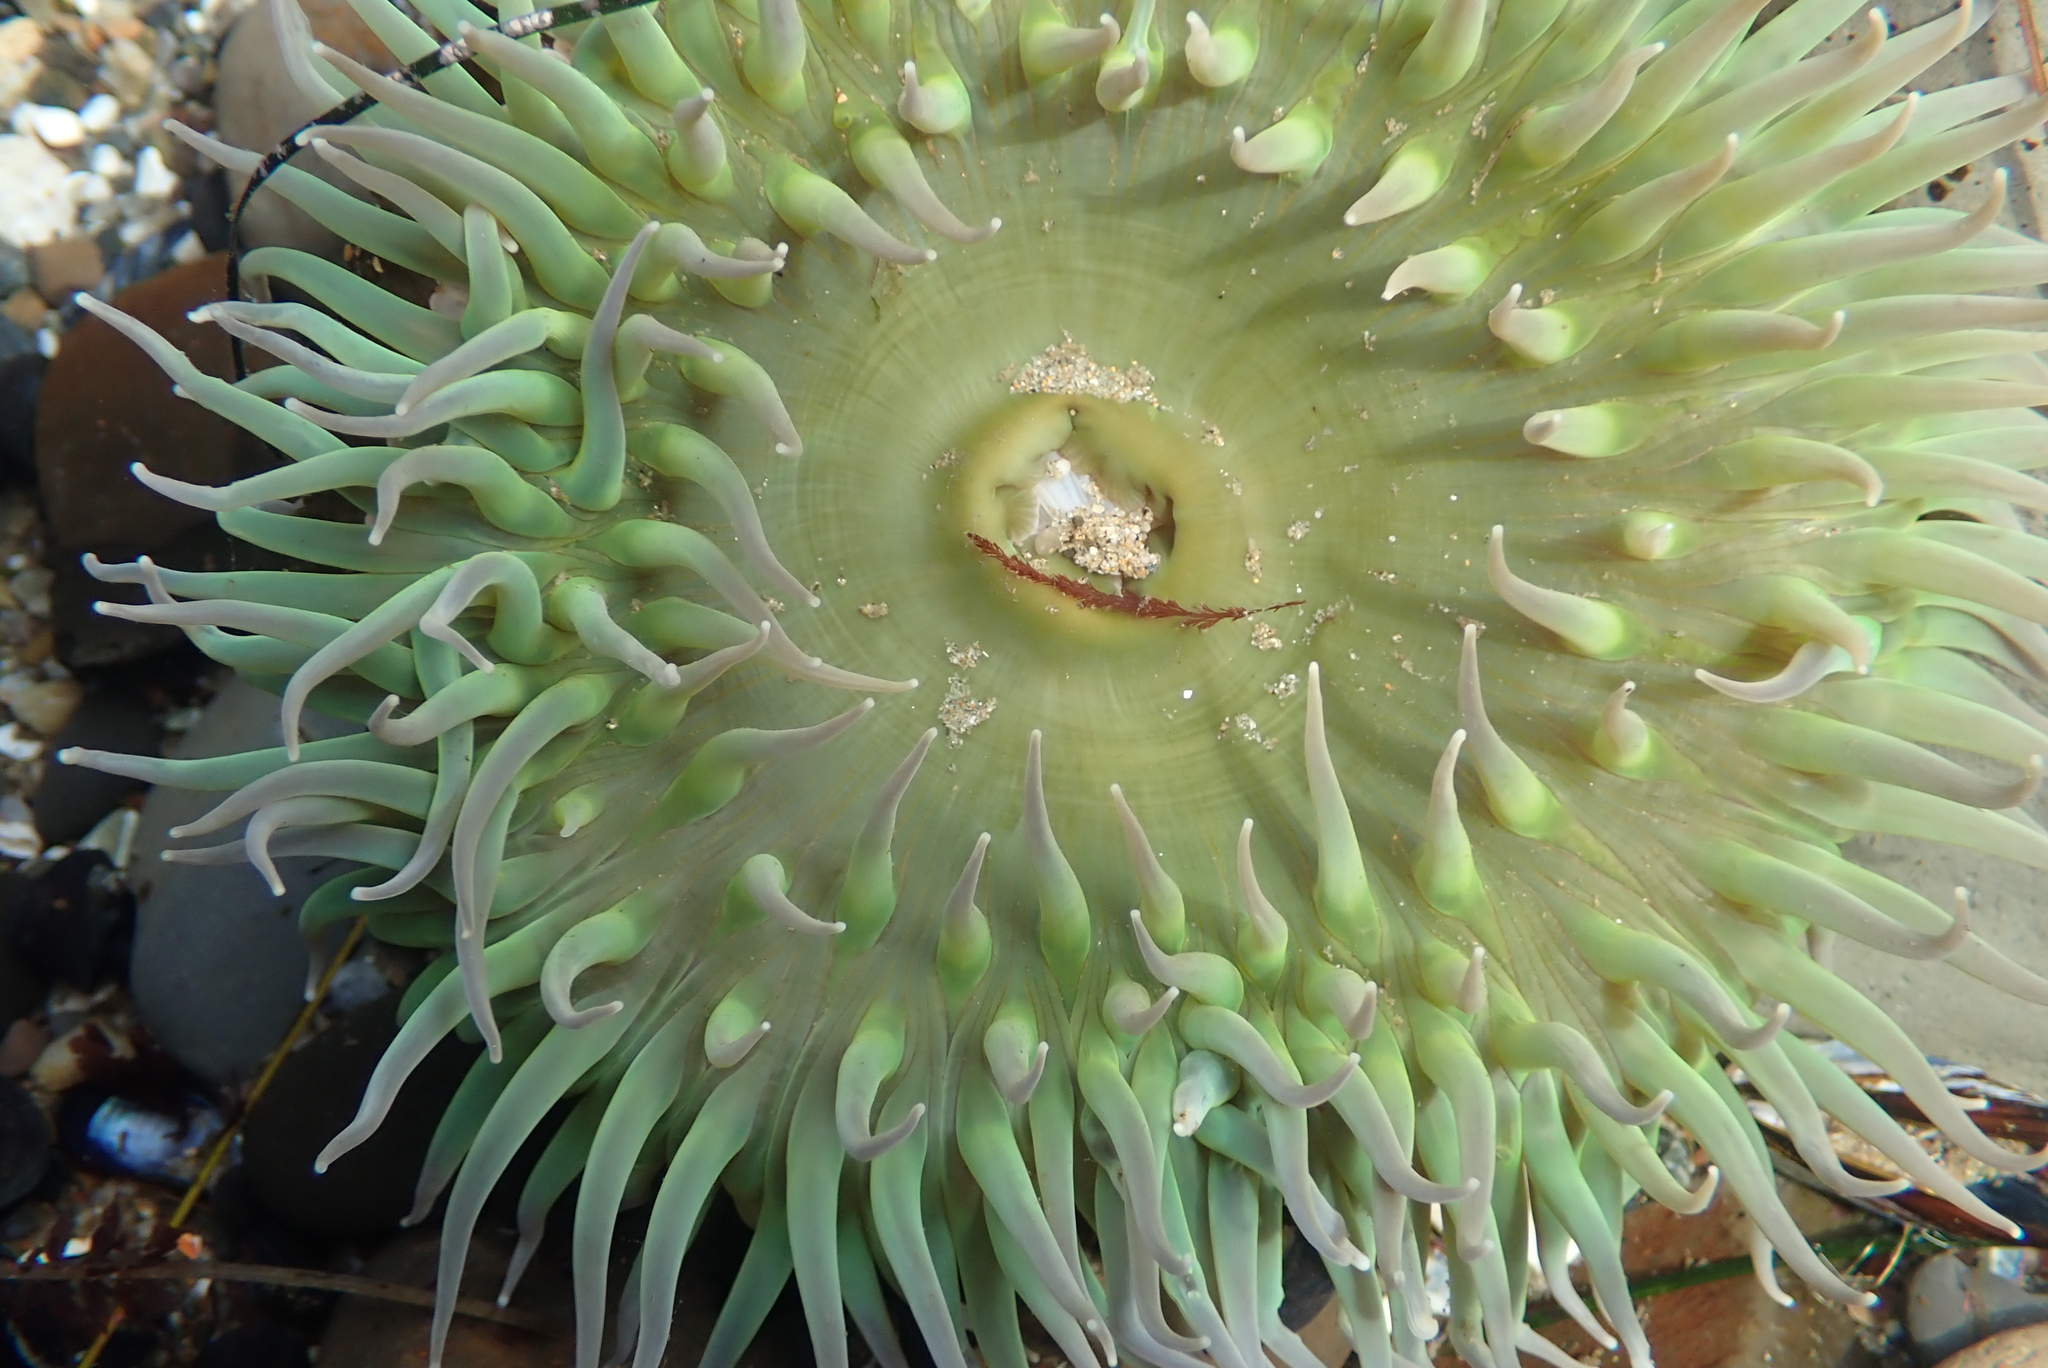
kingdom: Animalia
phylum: Cnidaria
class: Anthozoa
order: Actiniaria
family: Actiniidae
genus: Anthopleura
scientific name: Anthopleura xanthogrammica
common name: Giant green anemone
